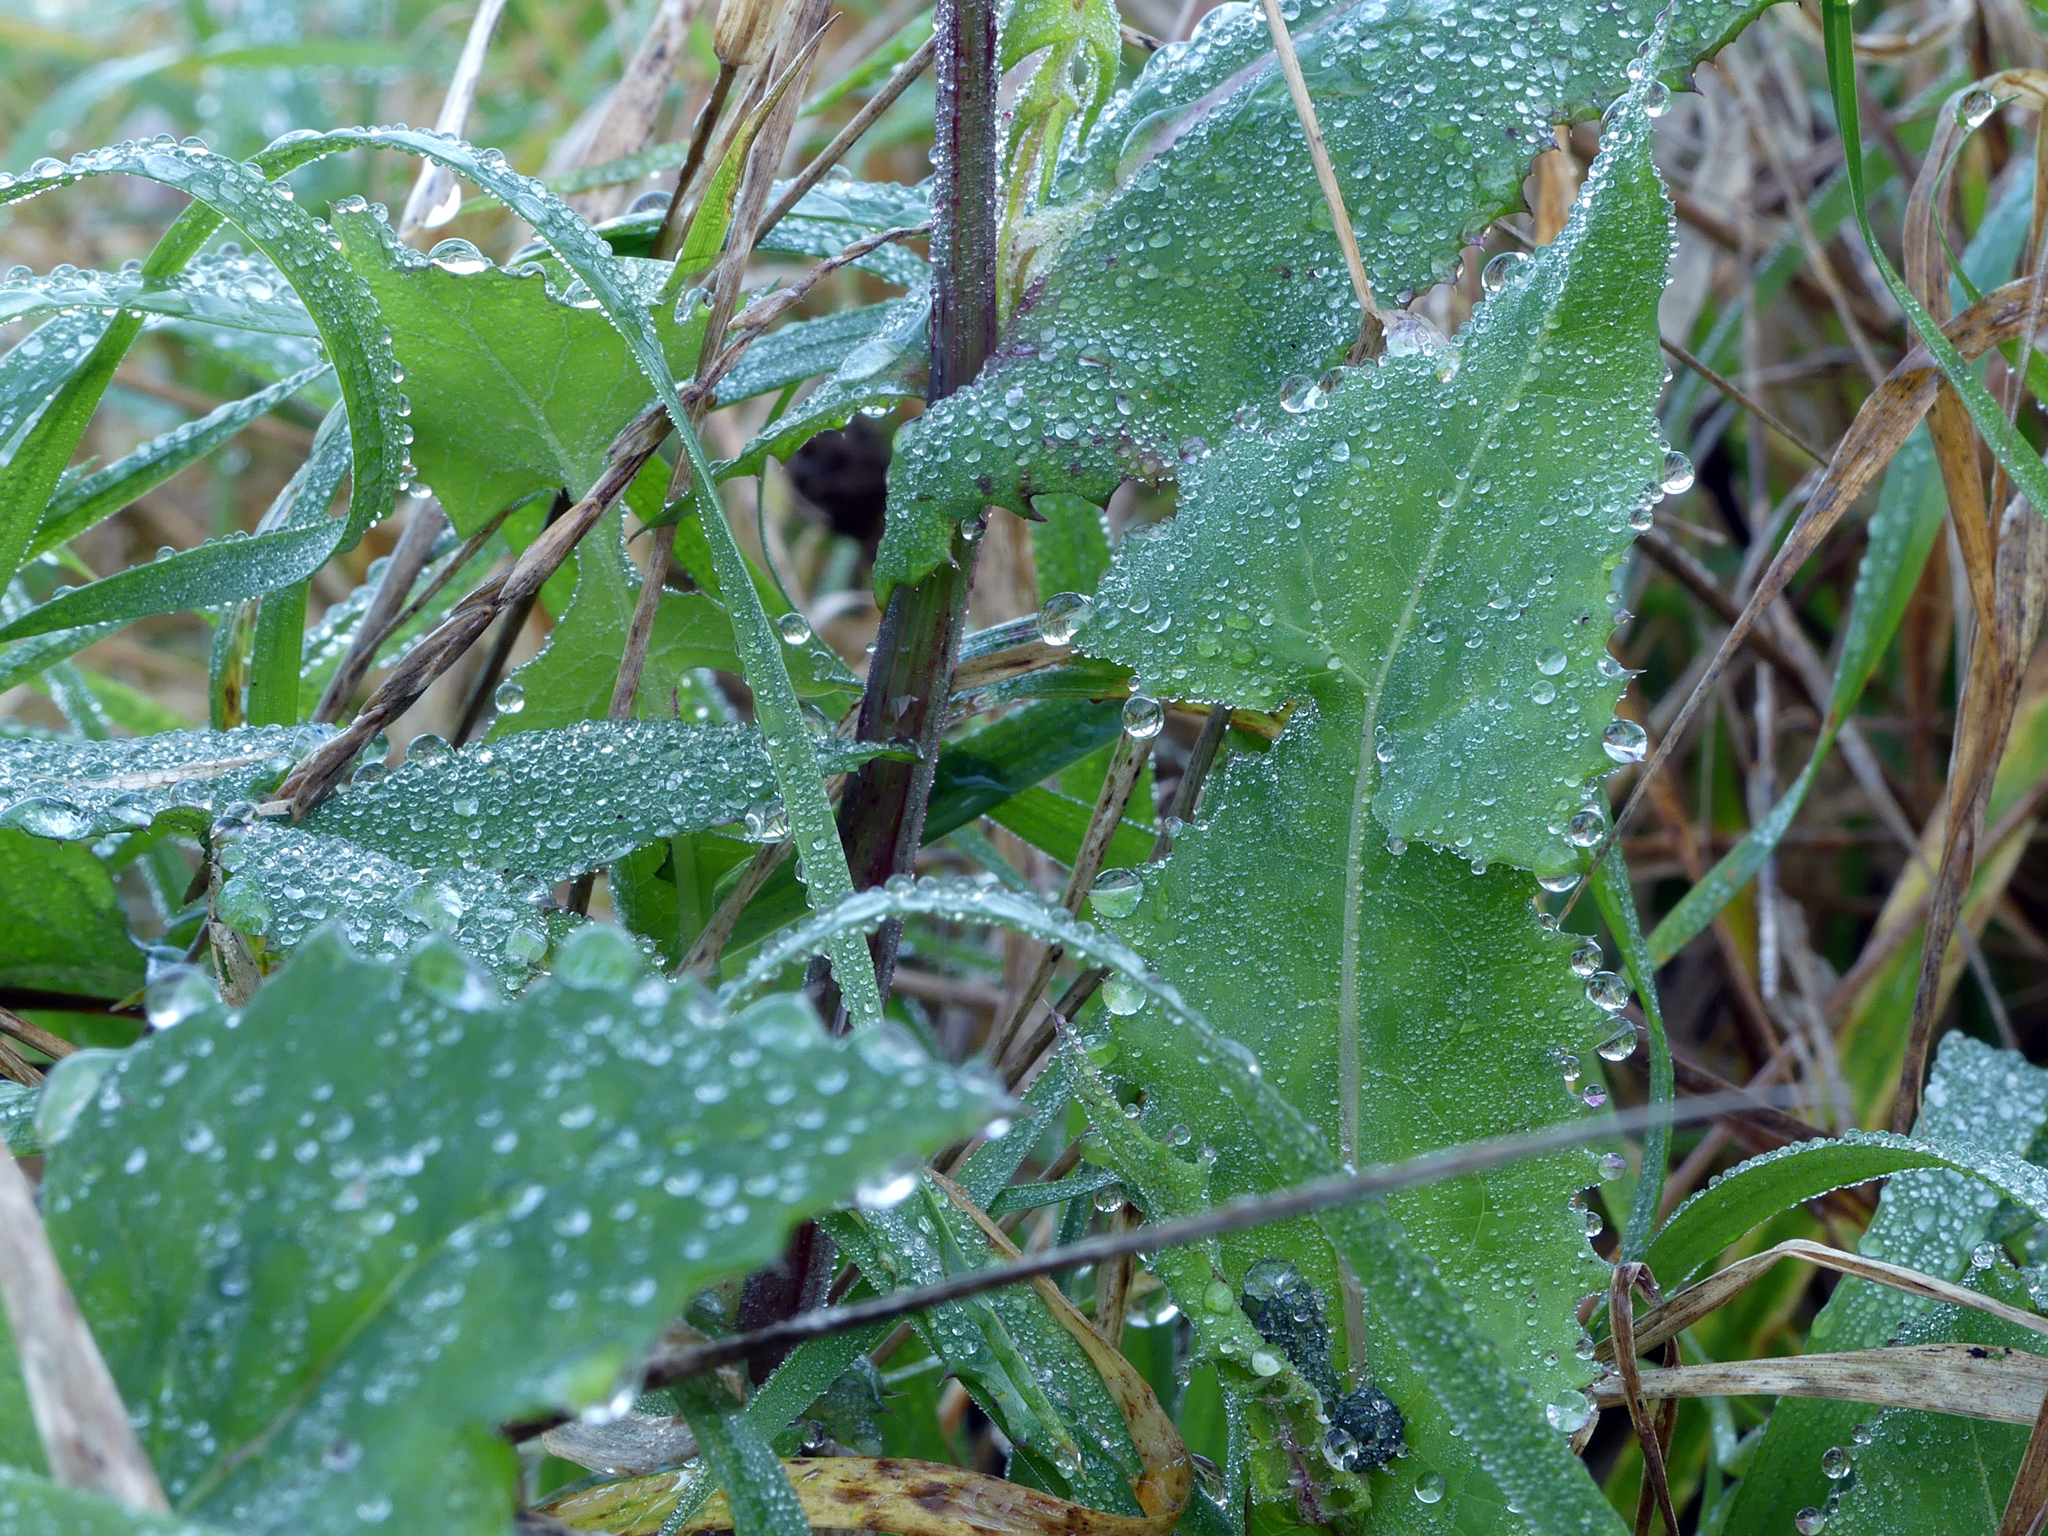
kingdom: Plantae
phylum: Tracheophyta
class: Magnoliopsida
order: Asterales
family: Asteraceae
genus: Sonchus
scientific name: Sonchus oleraceus
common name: Common sowthistle
